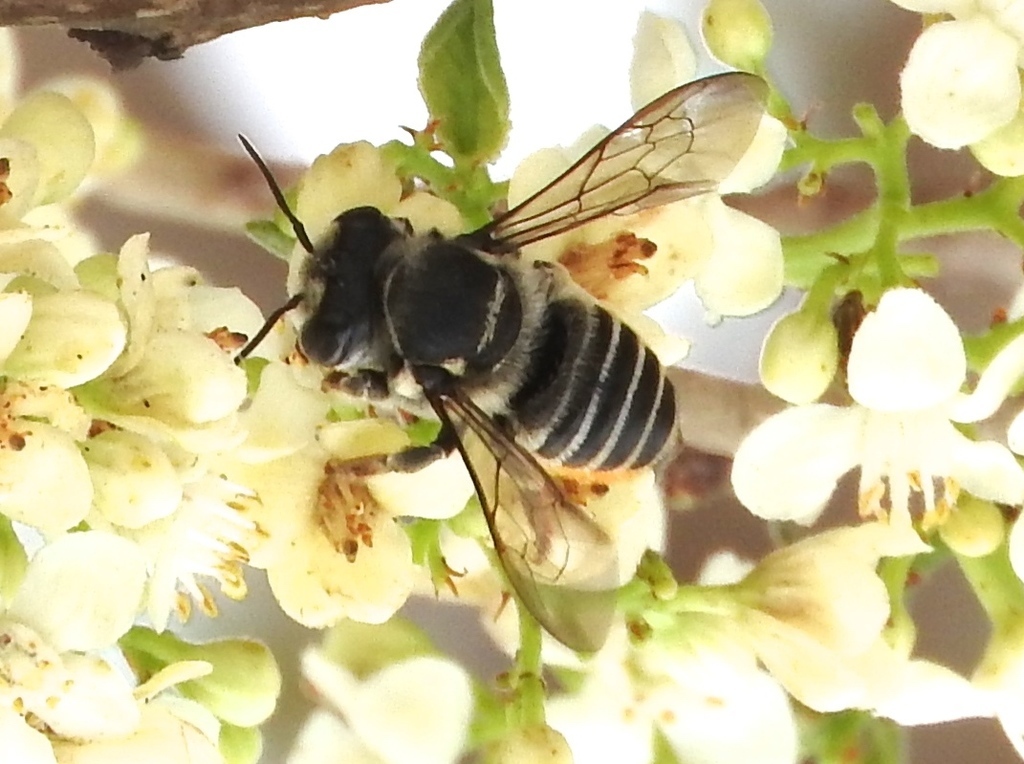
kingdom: Animalia
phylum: Arthropoda
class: Insecta
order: Hymenoptera
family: Megachilidae
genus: Megachile
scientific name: Megachile
